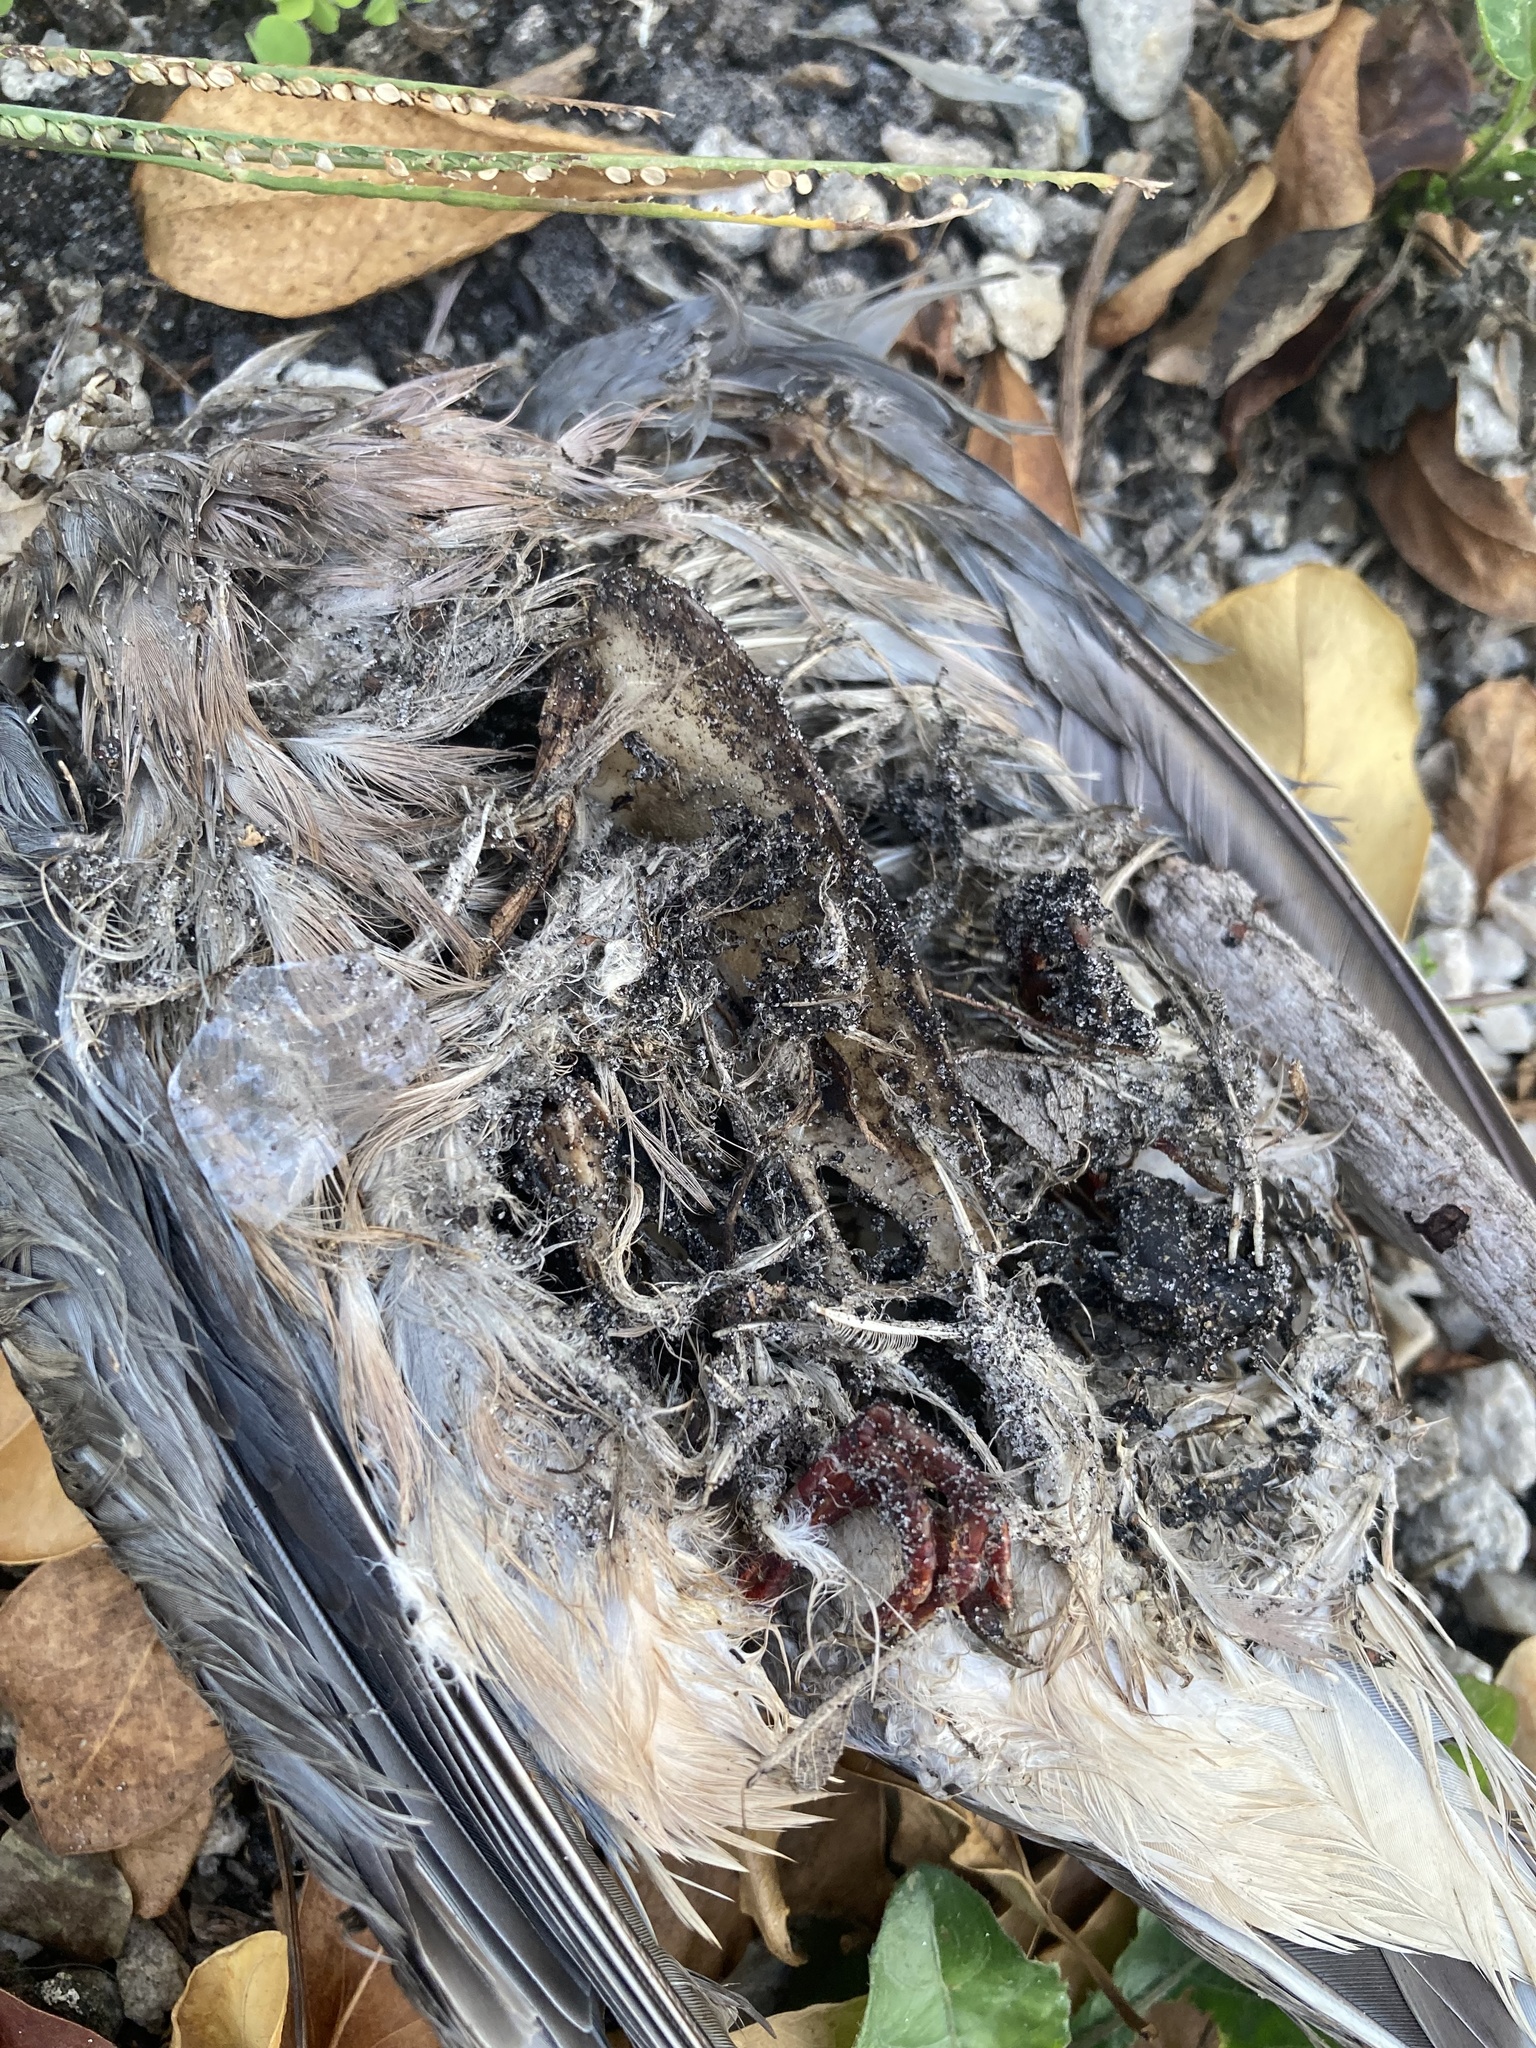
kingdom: Animalia
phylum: Chordata
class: Aves
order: Columbiformes
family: Columbidae
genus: Zenaida
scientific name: Zenaida macroura
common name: Mourning dove
